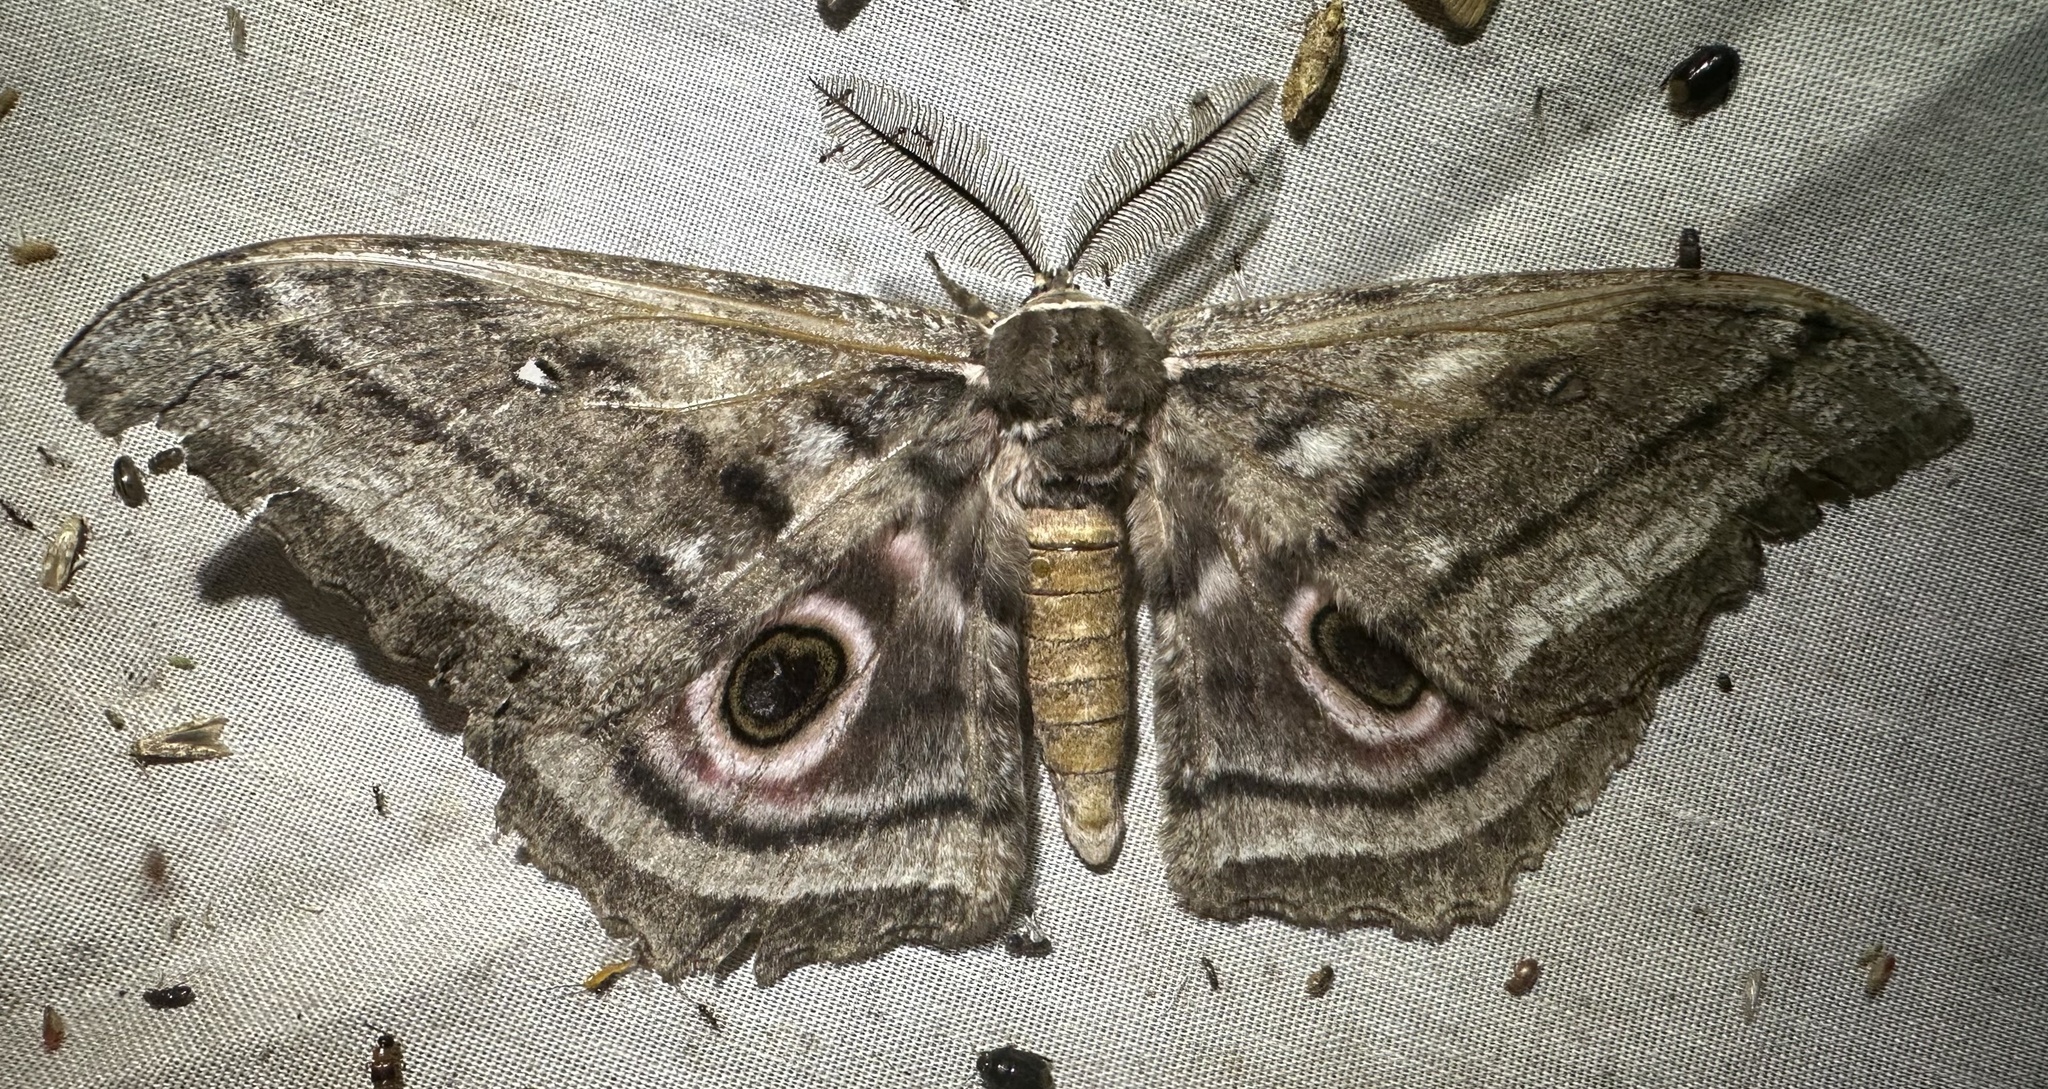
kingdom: Animalia
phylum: Arthropoda
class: Insecta
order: Lepidoptera
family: Saturniidae
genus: Gynanisa
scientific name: Gynanisa maja
